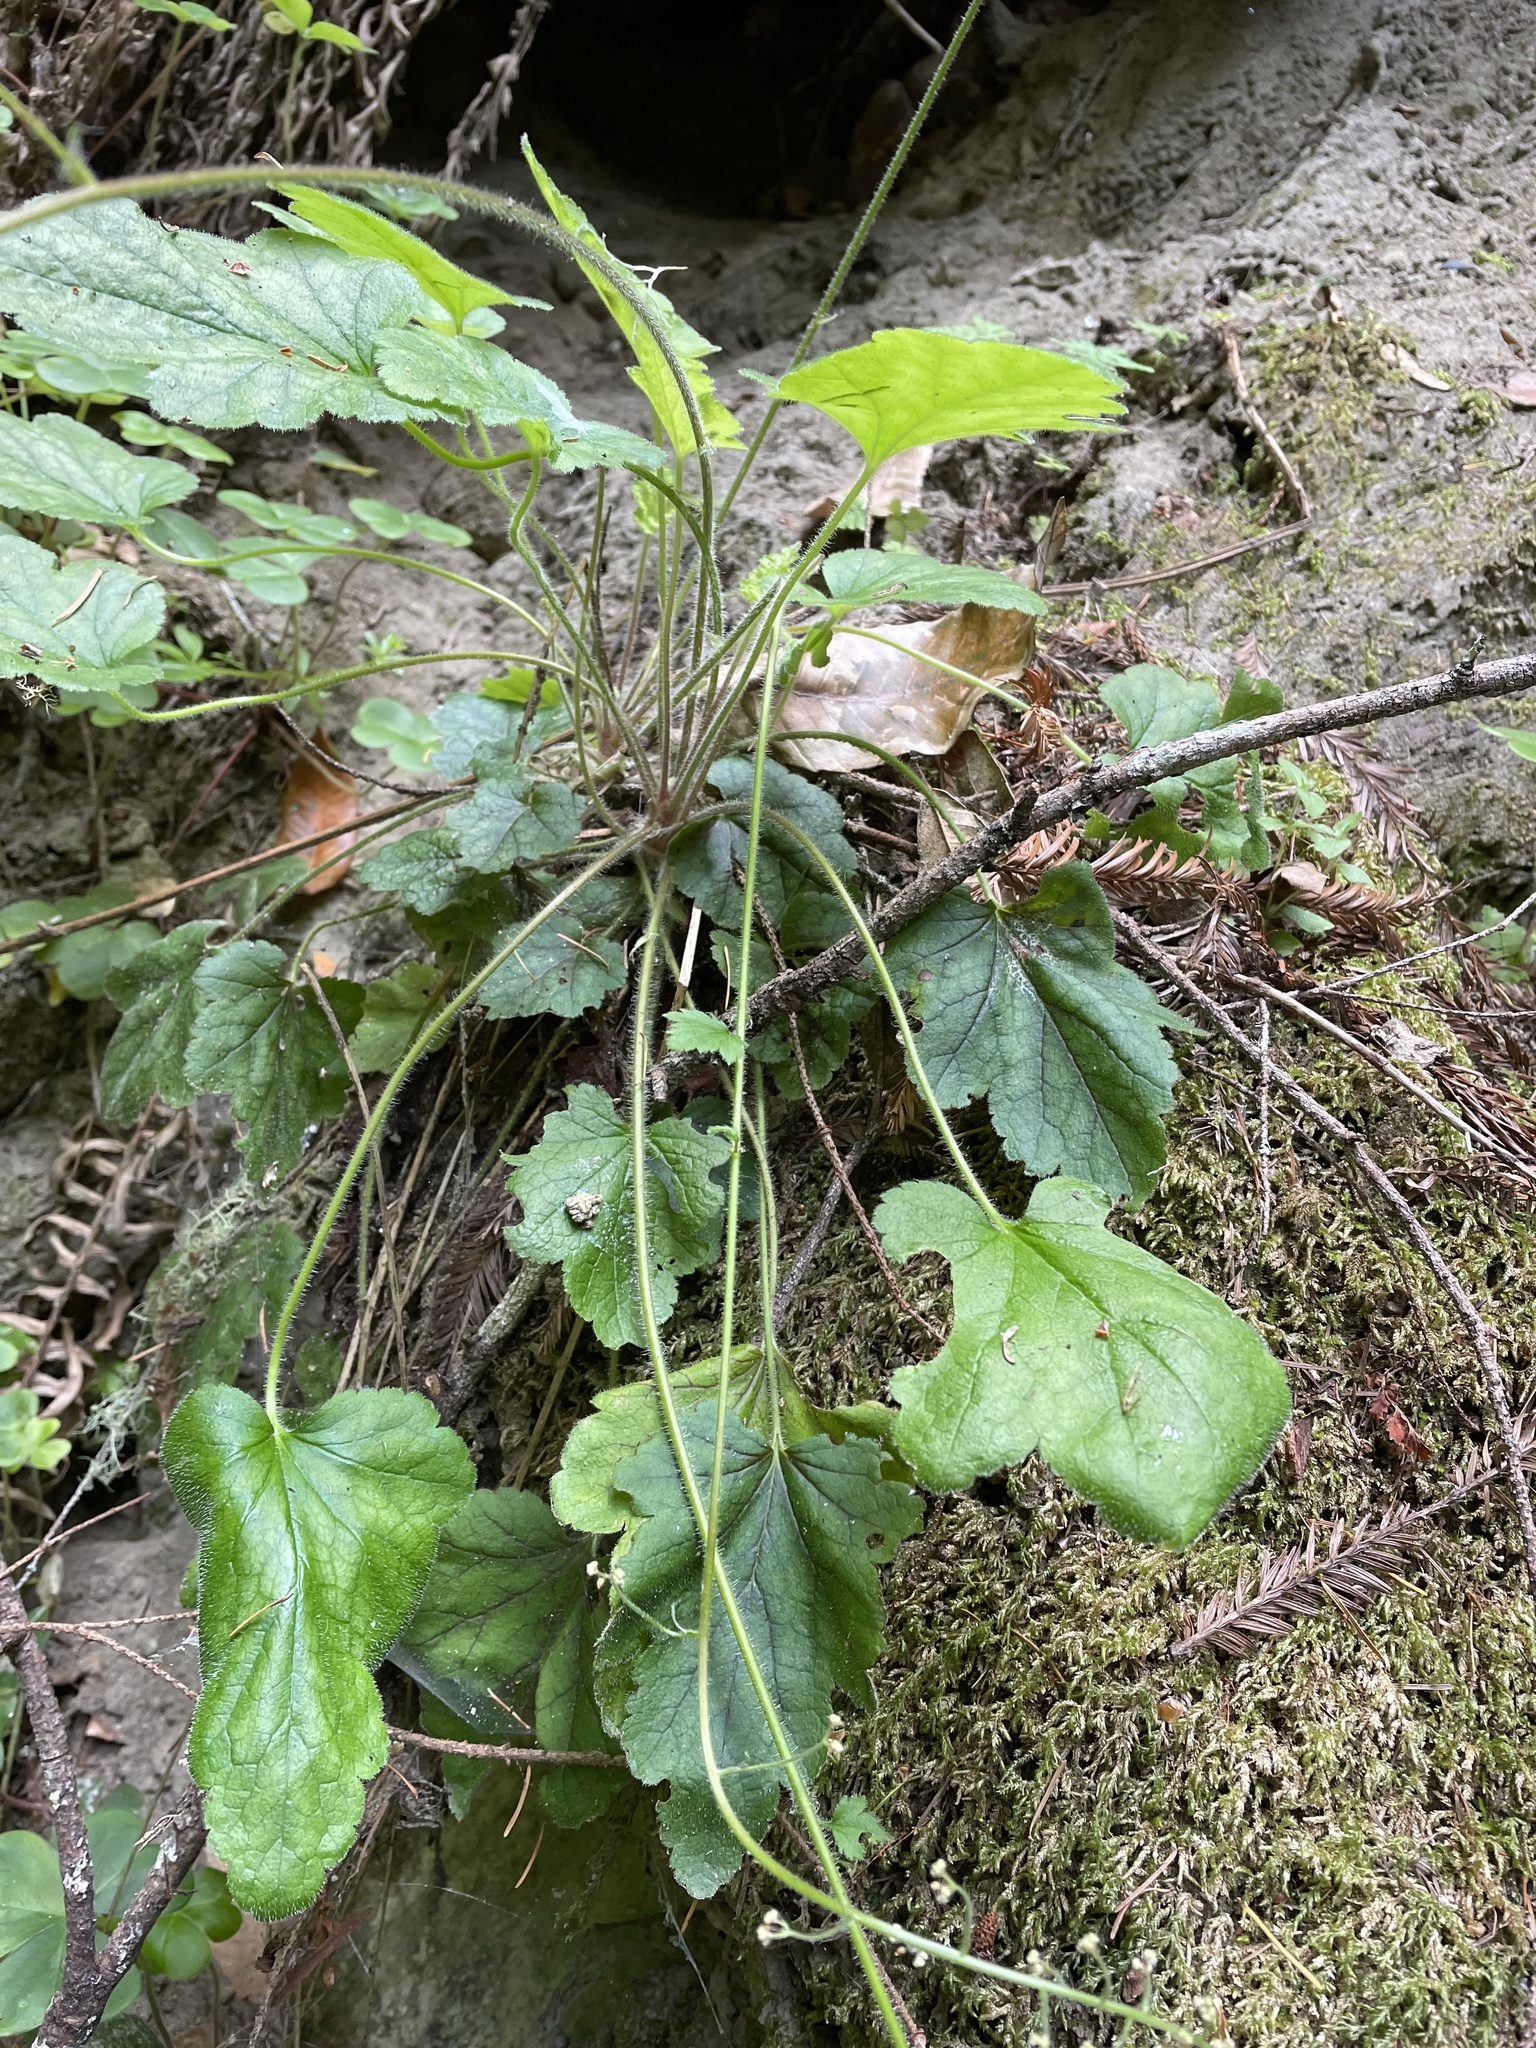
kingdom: Plantae
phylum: Tracheophyta
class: Magnoliopsida
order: Saxifragales
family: Saxifragaceae
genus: Heuchera
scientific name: Heuchera micrantha
